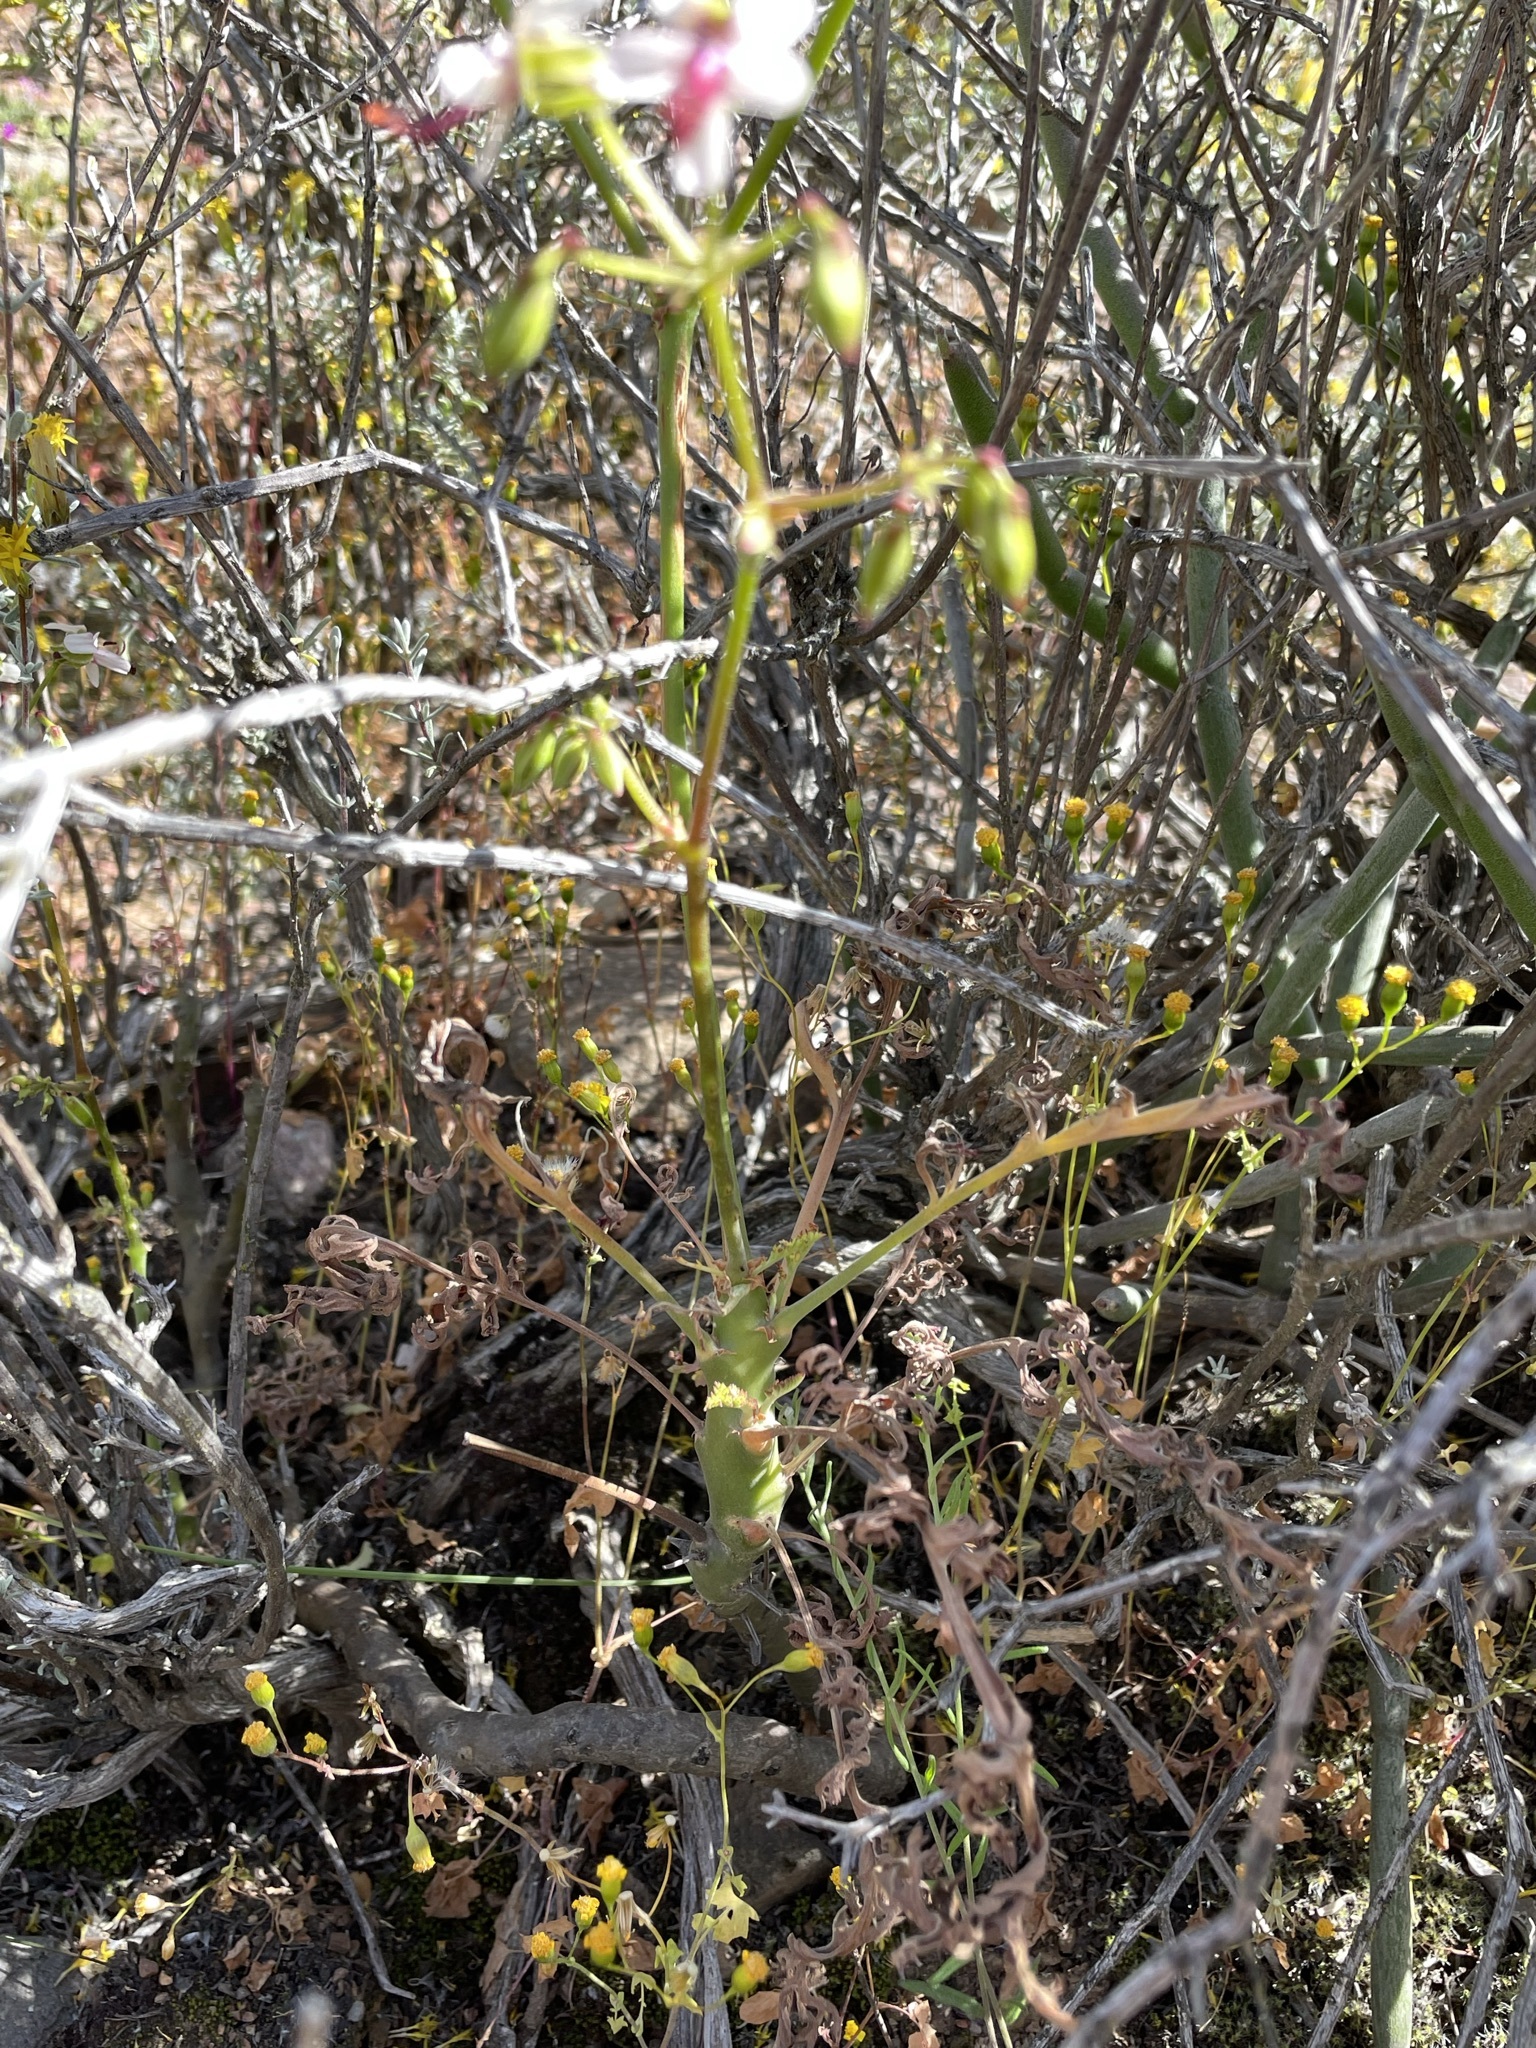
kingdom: Plantae
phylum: Tracheophyta
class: Magnoliopsida
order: Geraniales
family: Geraniaceae
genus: Pelargonium
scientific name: Pelargonium karooescens
